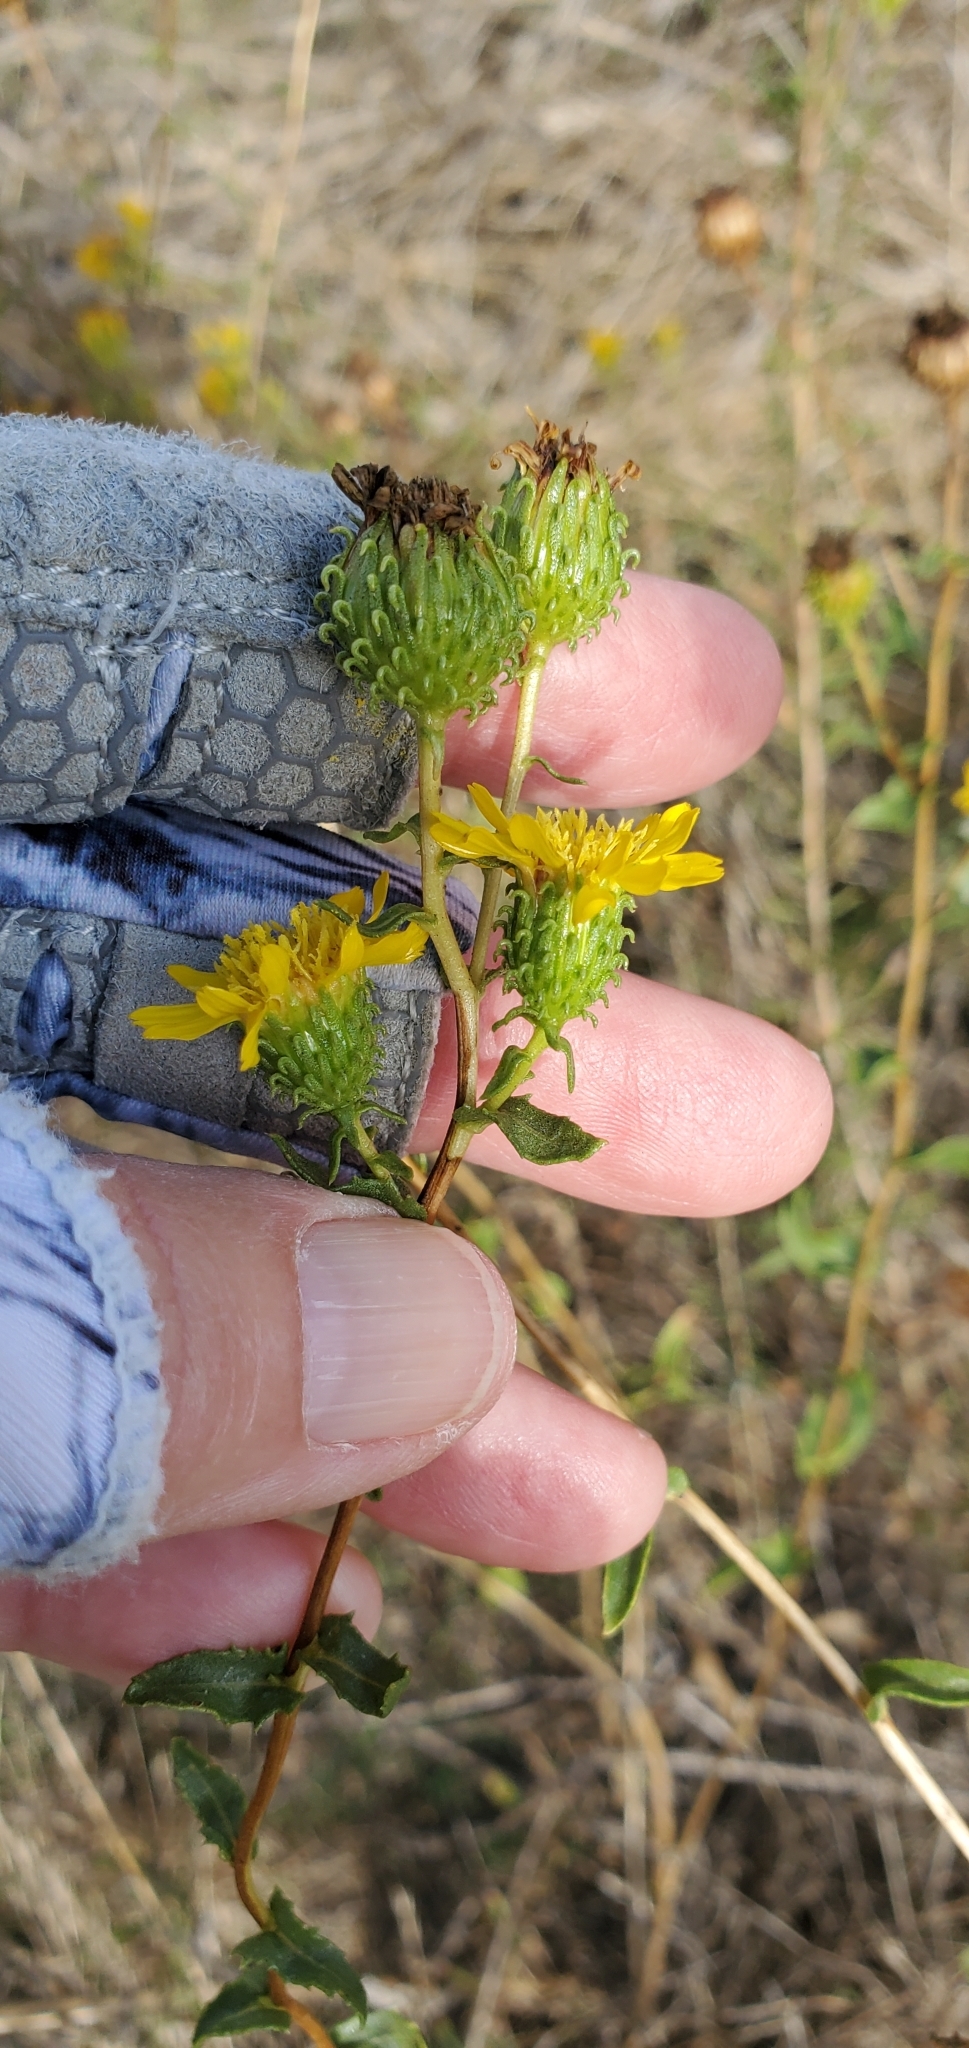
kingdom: Plantae
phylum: Tracheophyta
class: Magnoliopsida
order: Asterales
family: Asteraceae
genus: Grindelia
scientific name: Grindelia hirsutula
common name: Hairy gumweed
